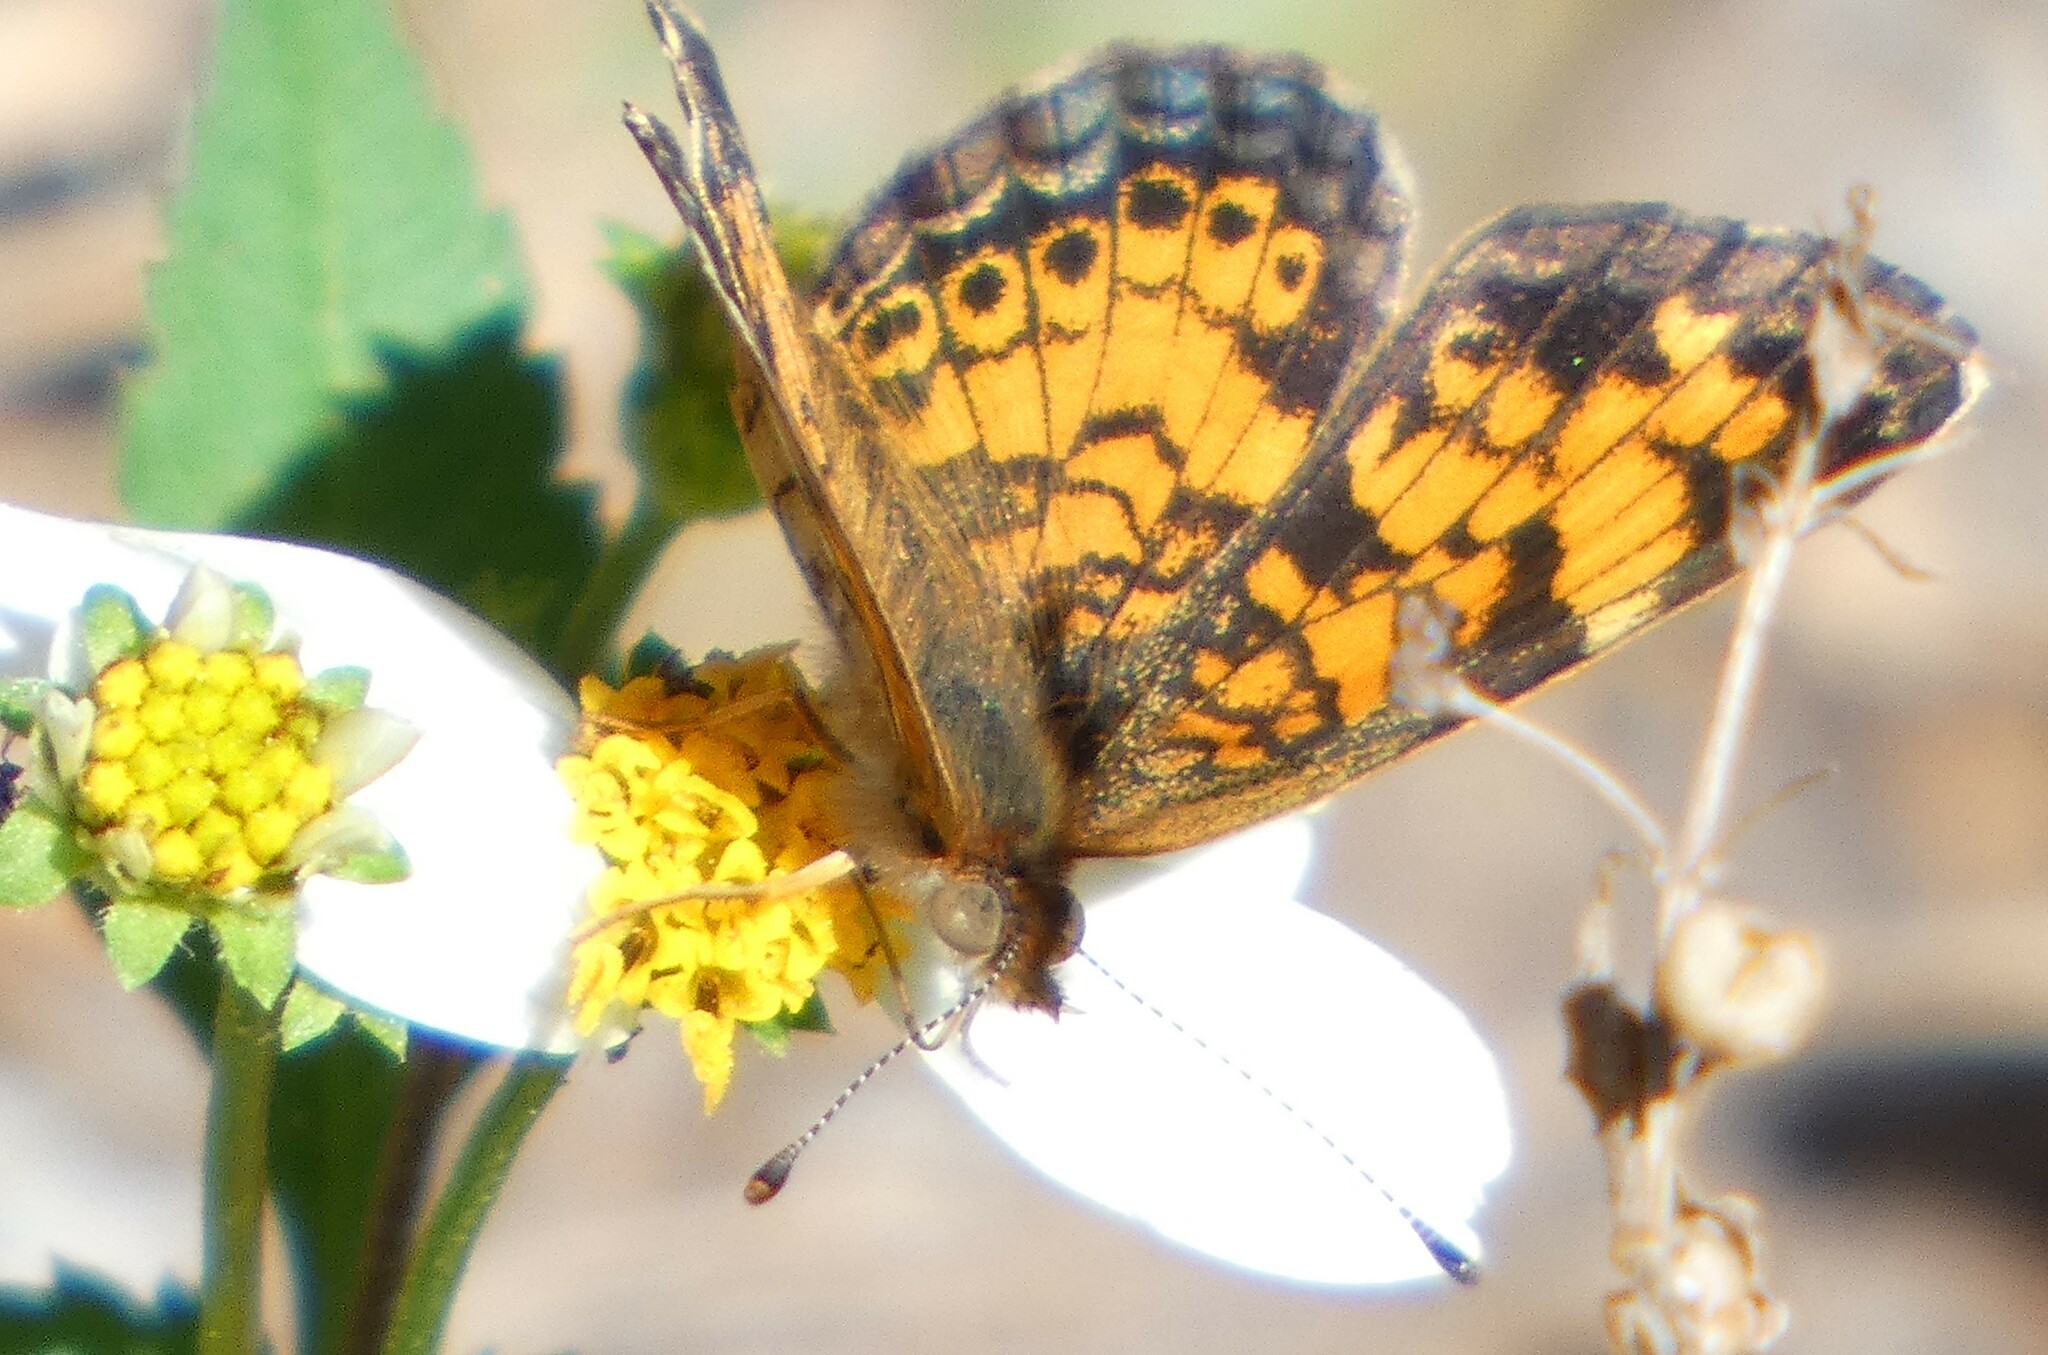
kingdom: Animalia
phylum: Arthropoda
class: Insecta
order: Lepidoptera
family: Nymphalidae
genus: Phyciodes
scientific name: Phyciodes tharos
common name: Pearl crescent
